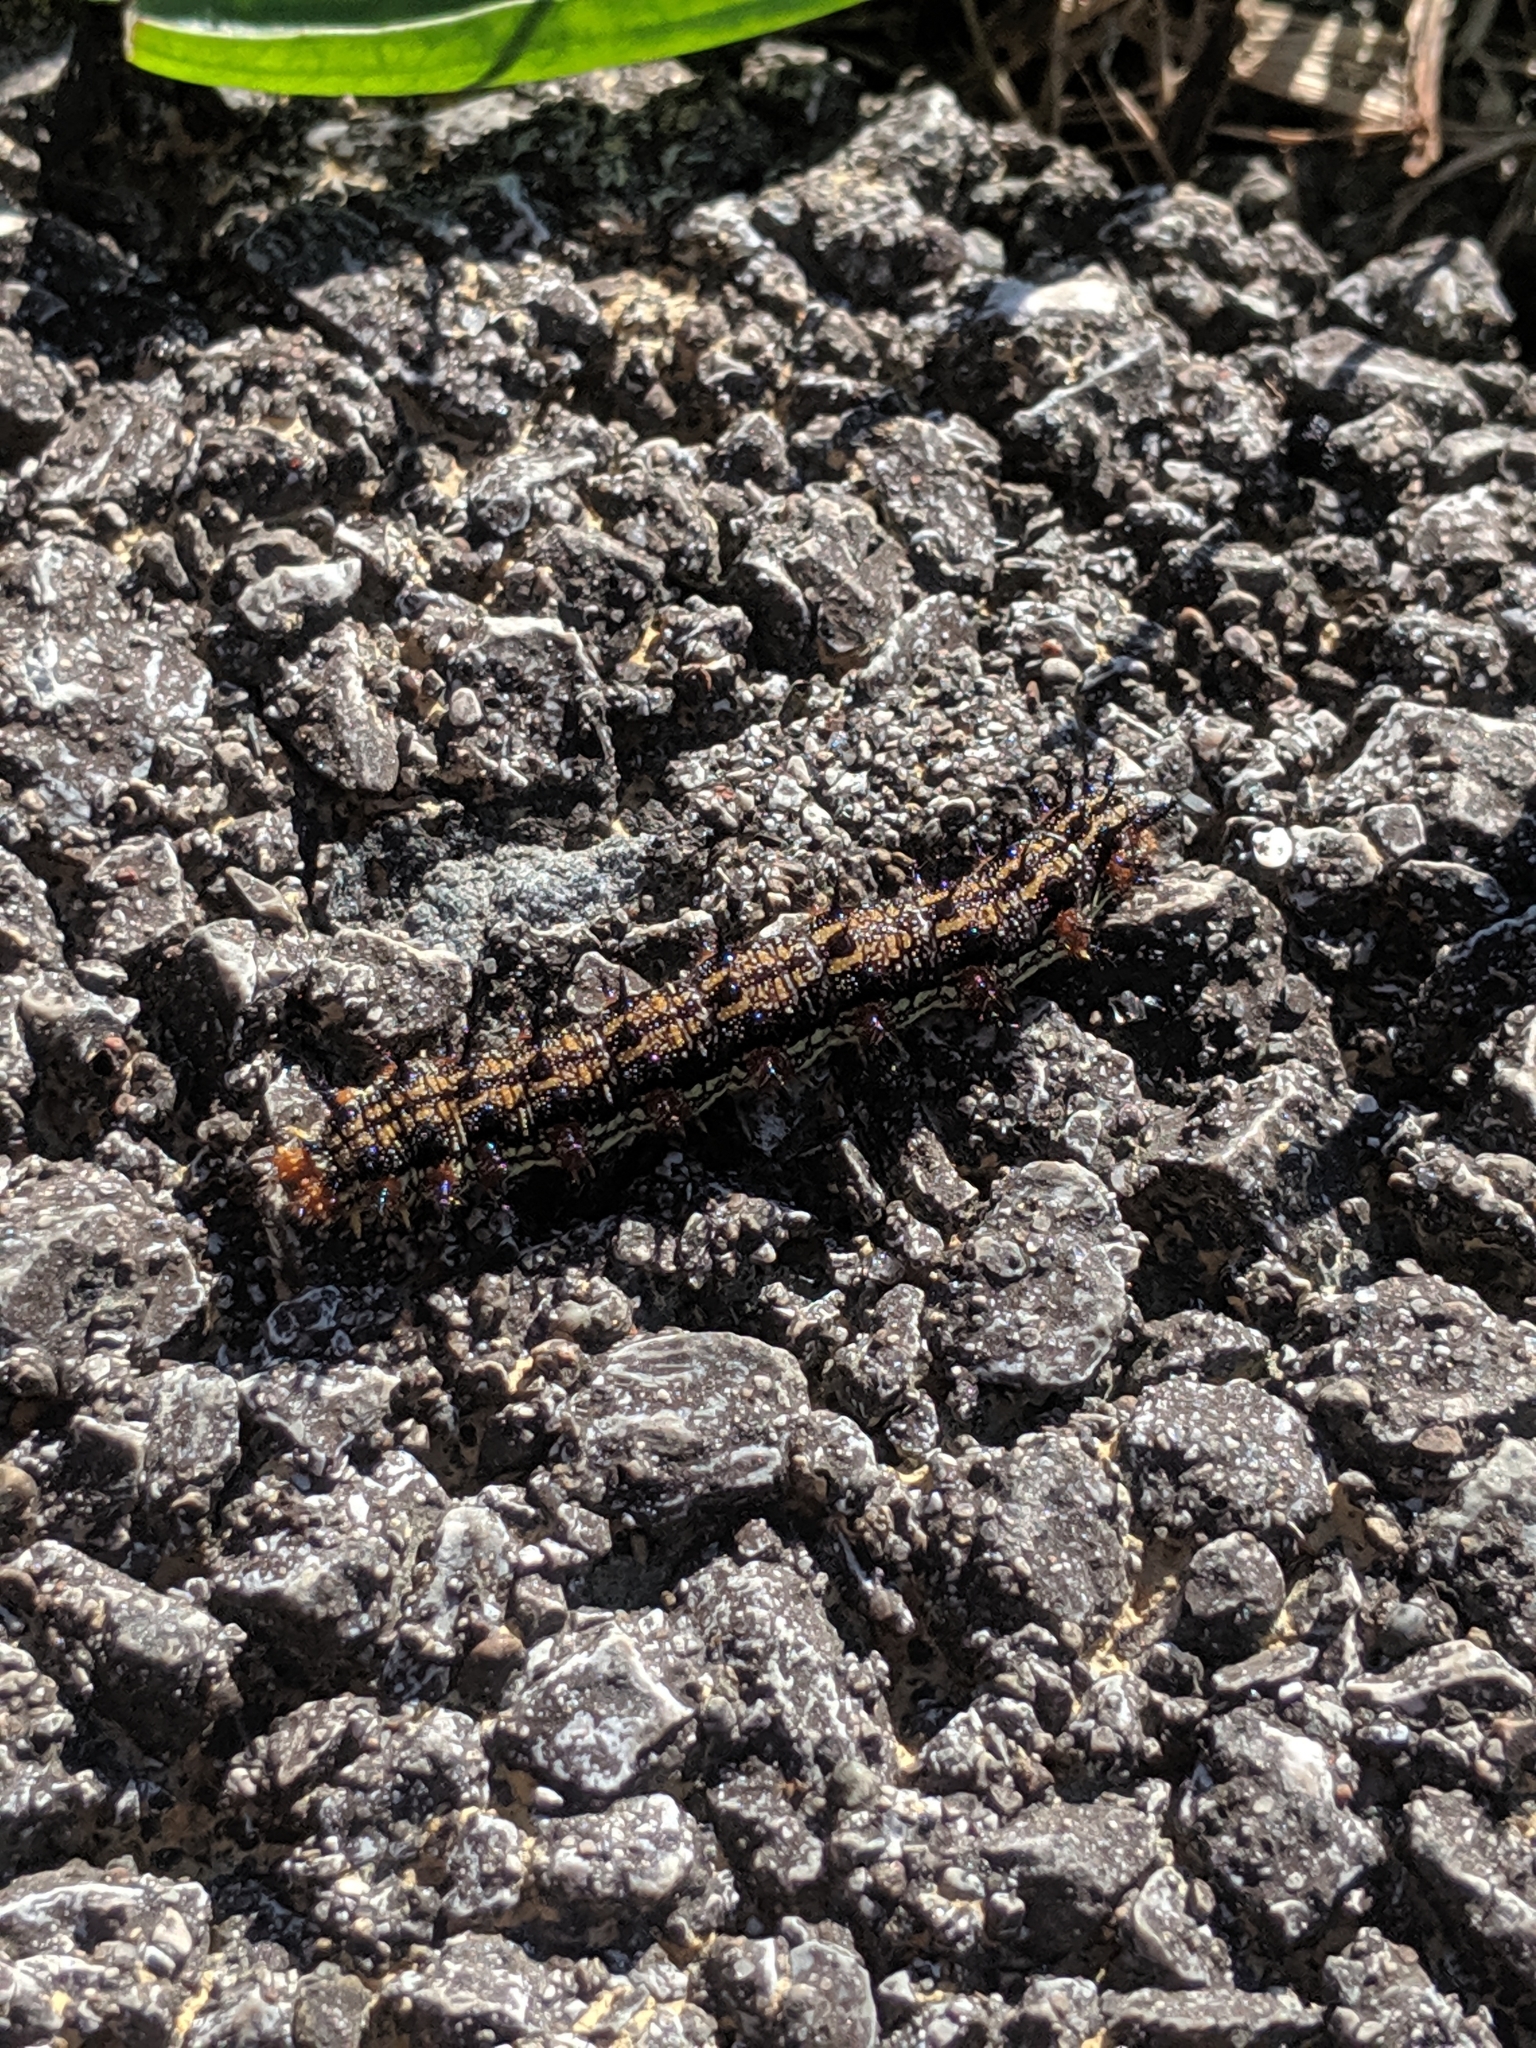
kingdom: Animalia
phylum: Arthropoda
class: Insecta
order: Lepidoptera
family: Nymphalidae
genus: Junonia
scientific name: Junonia coenia
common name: Common buckeye
